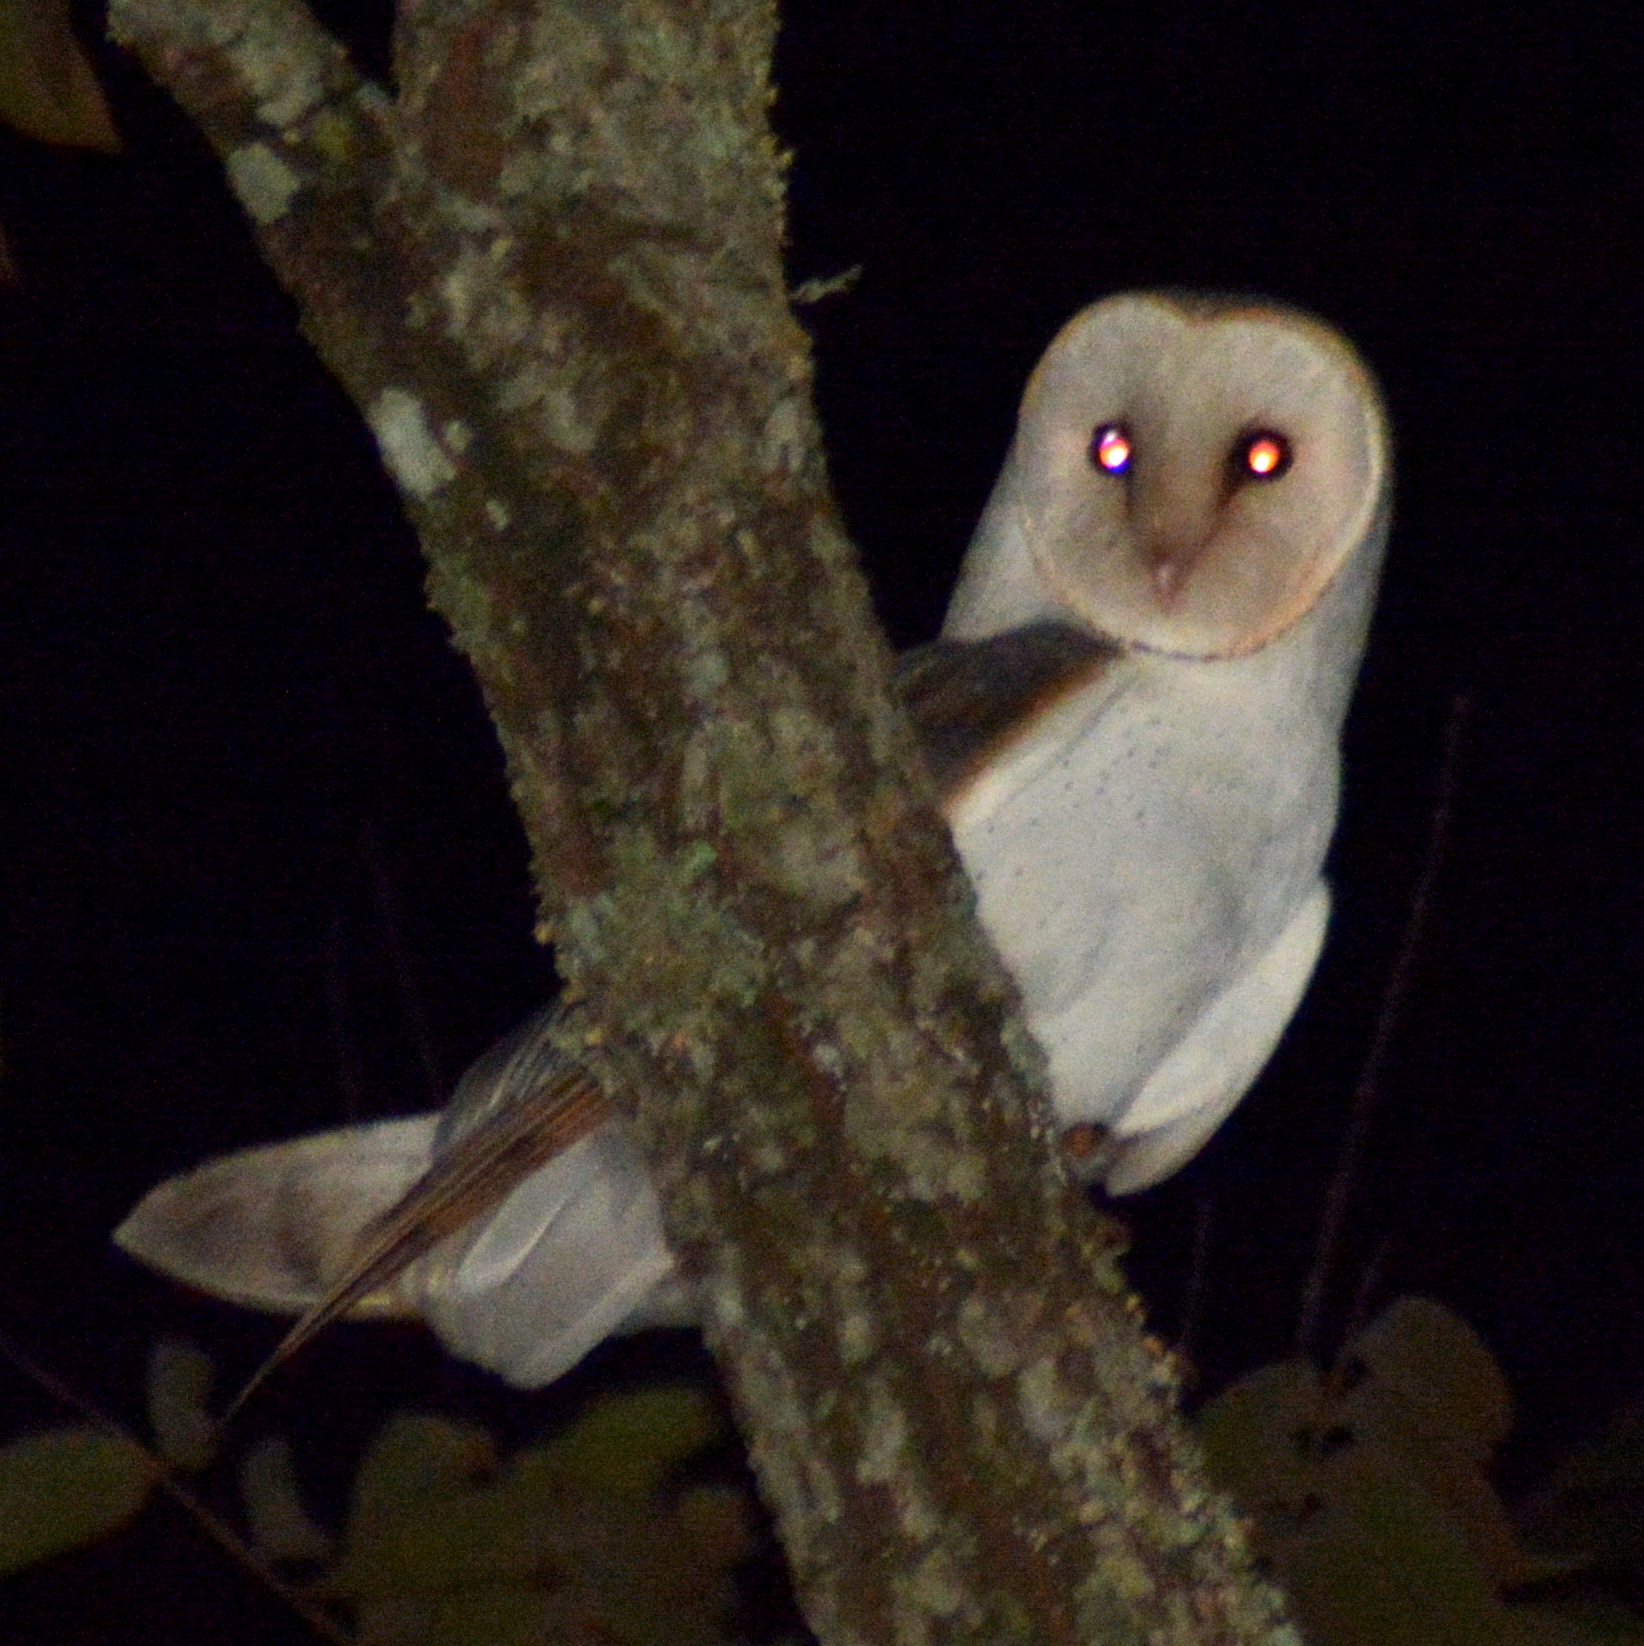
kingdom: Animalia
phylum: Chordata
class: Aves
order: Strigiformes
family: Tytonidae
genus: Tyto
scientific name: Tyto alba
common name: Barn owl
